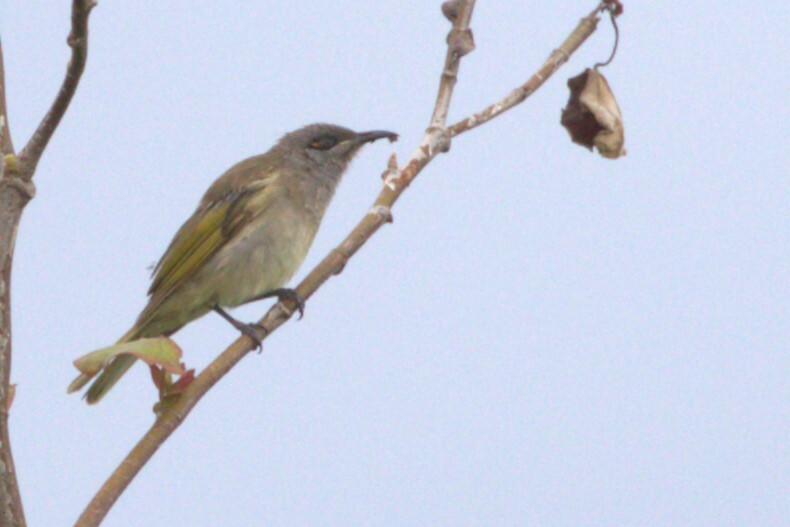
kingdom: Animalia
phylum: Chordata
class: Aves
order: Passeriformes
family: Meliphagidae
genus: Lichmera
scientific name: Lichmera indistincta
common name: Brown honeyeater
